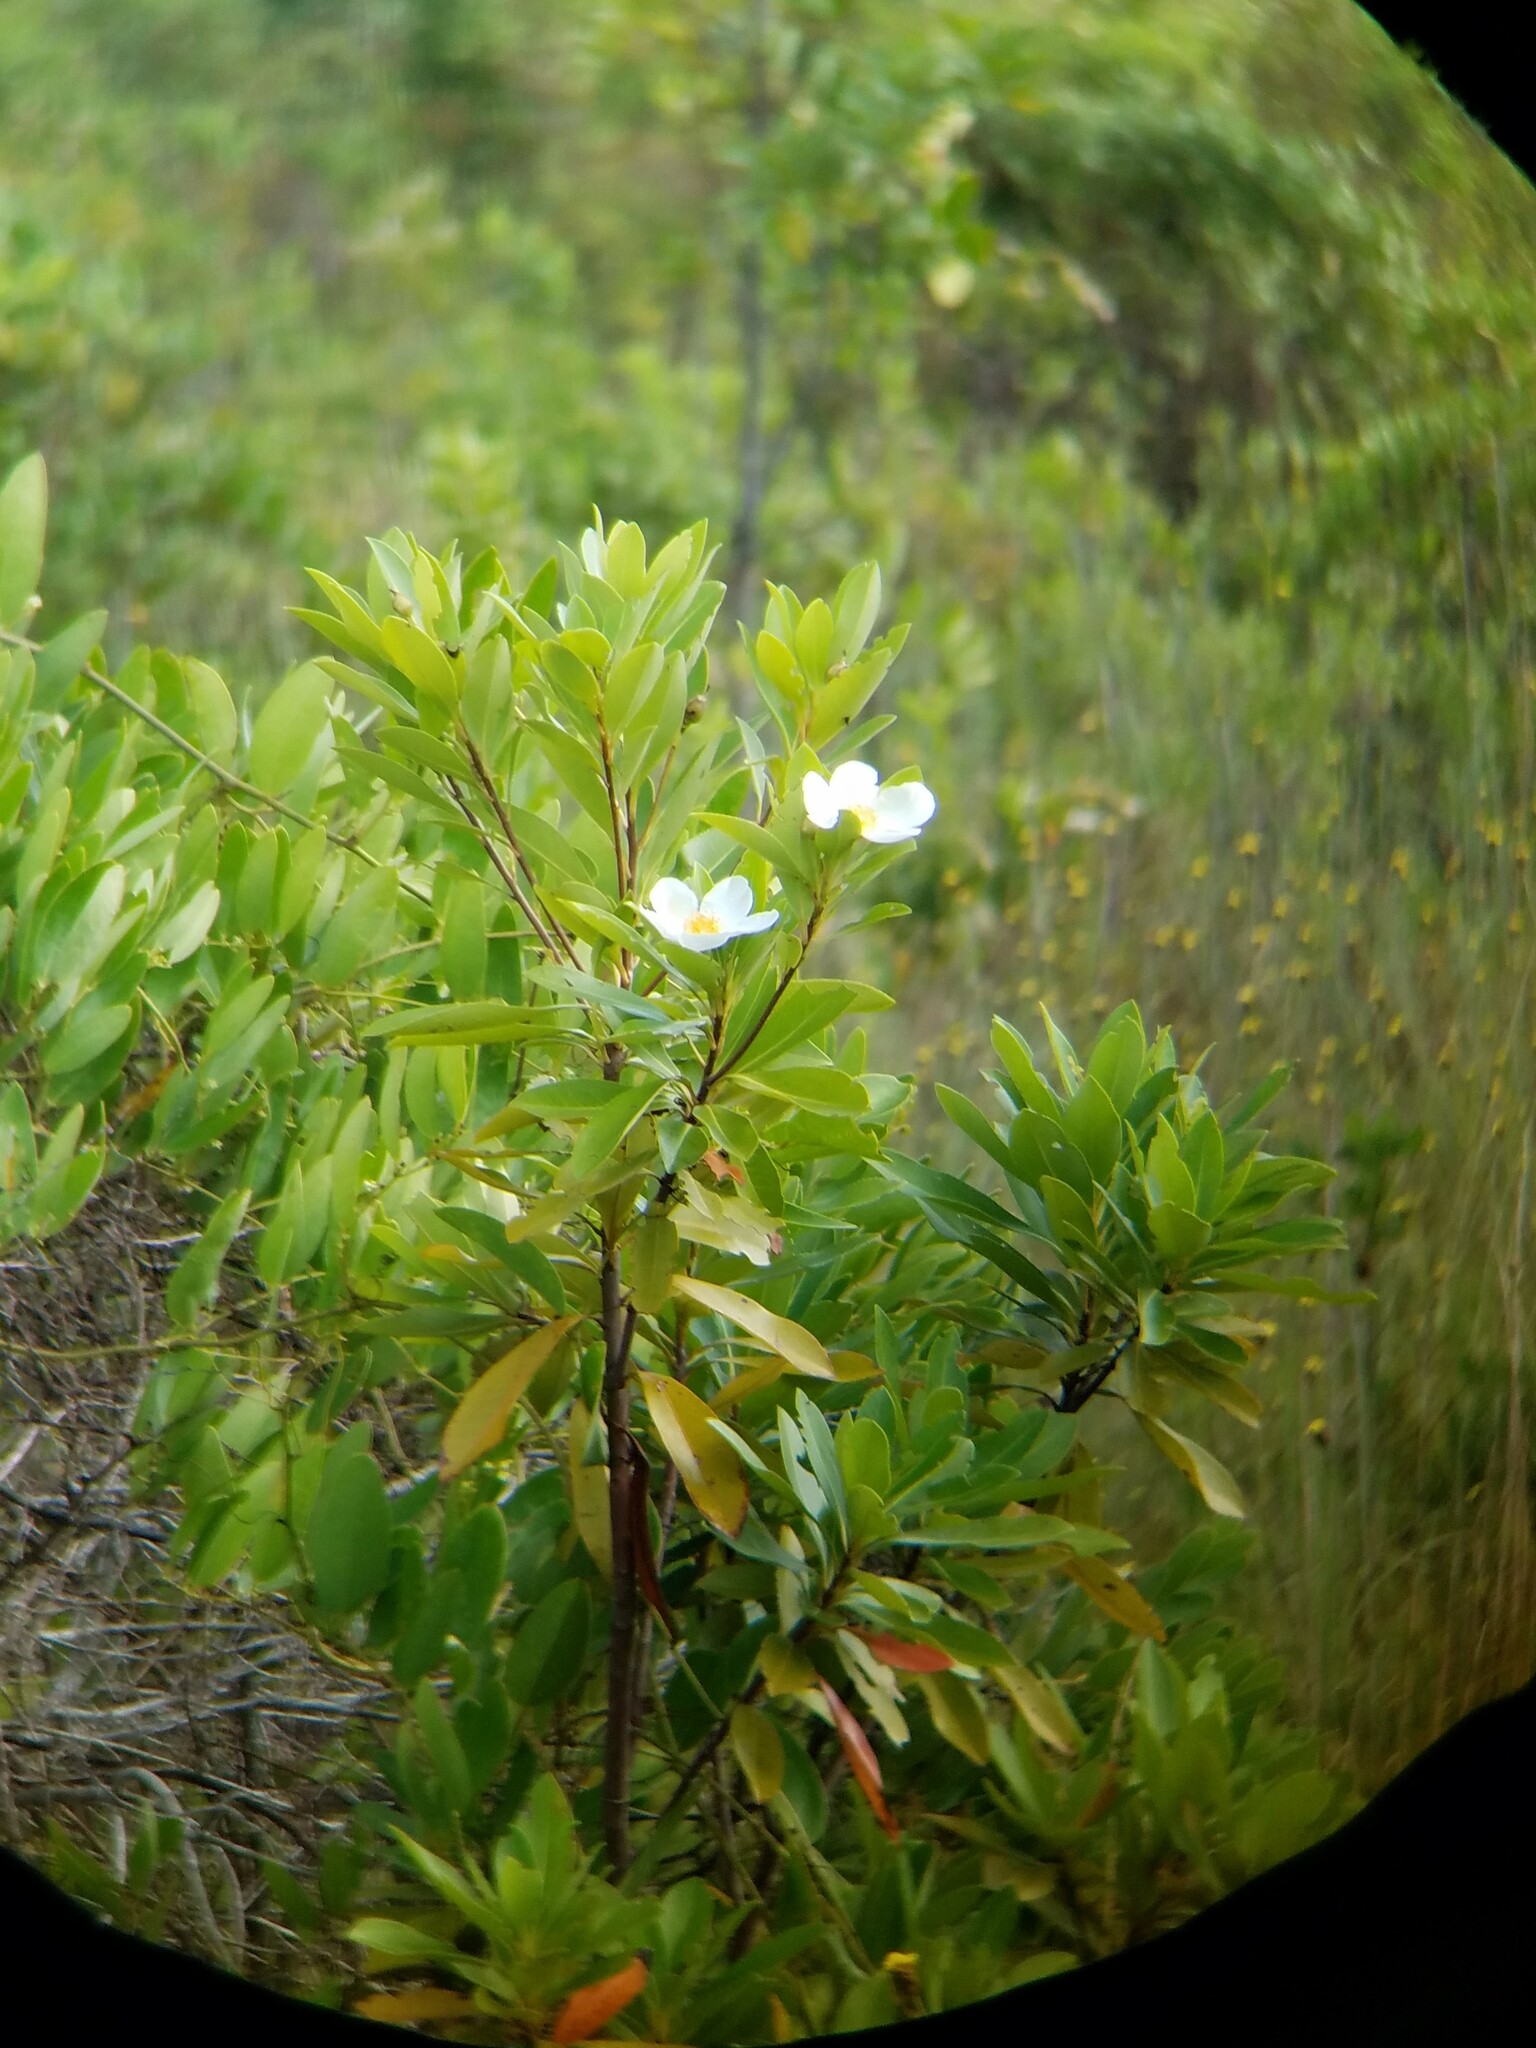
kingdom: Plantae
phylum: Tracheophyta
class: Magnoliopsida
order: Ericales
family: Theaceae
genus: Gordonia
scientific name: Gordonia lasianthus
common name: Loblolly bay
